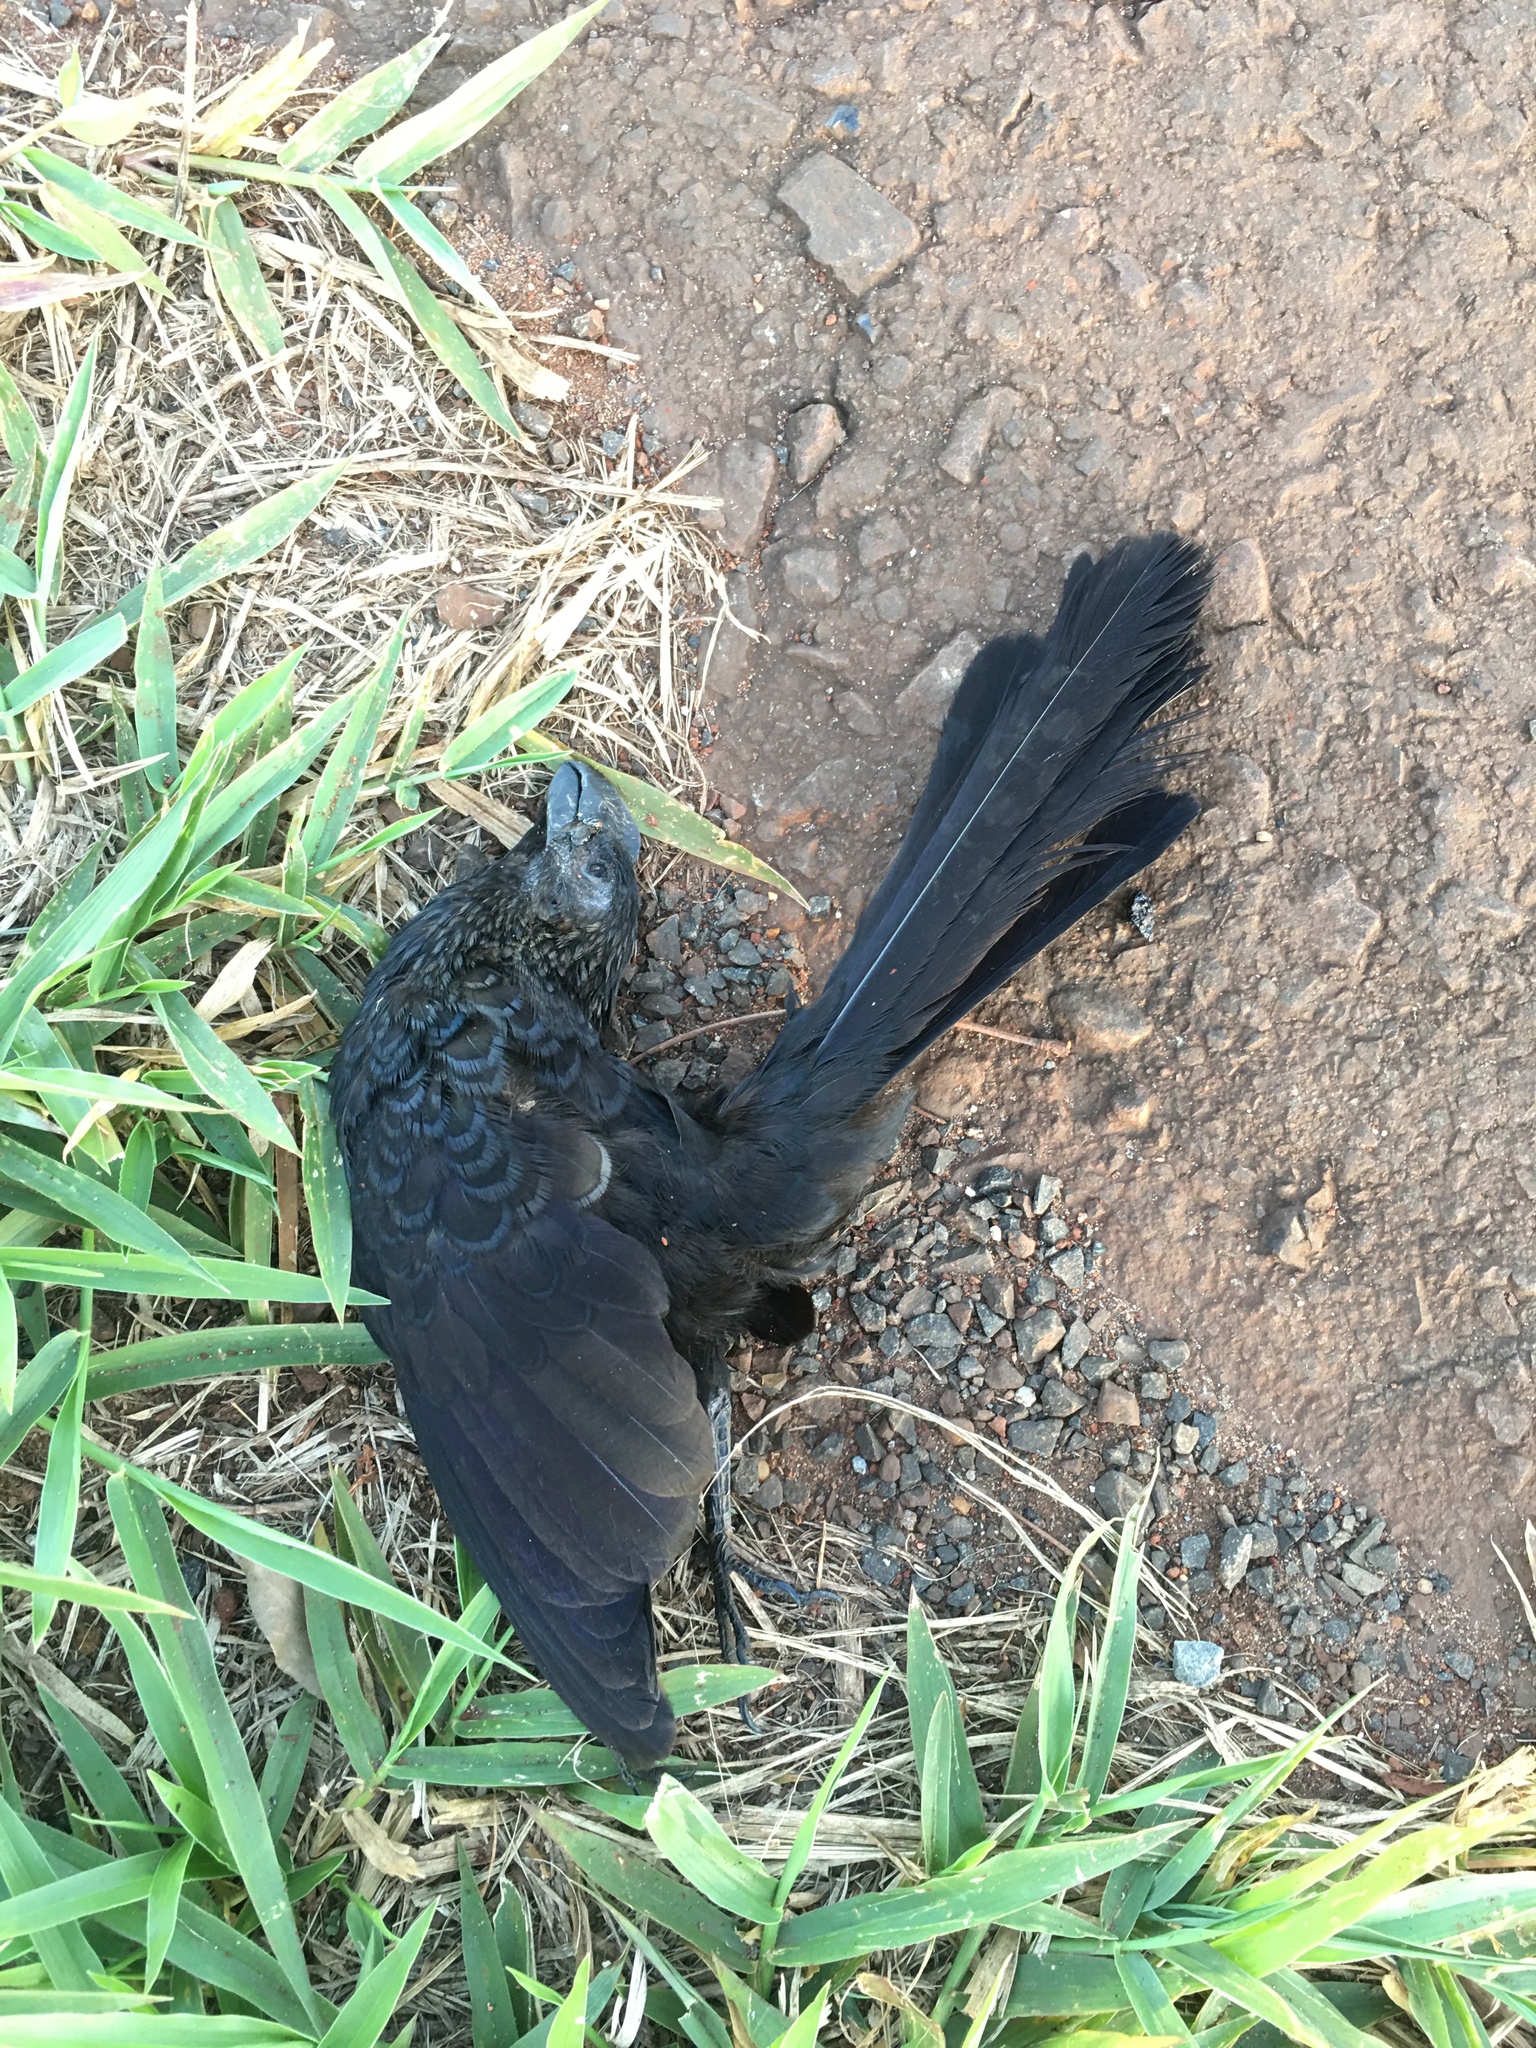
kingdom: Animalia
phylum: Chordata
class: Aves
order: Cuculiformes
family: Cuculidae
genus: Crotophaga
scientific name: Crotophaga ani
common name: Smooth-billed ani
